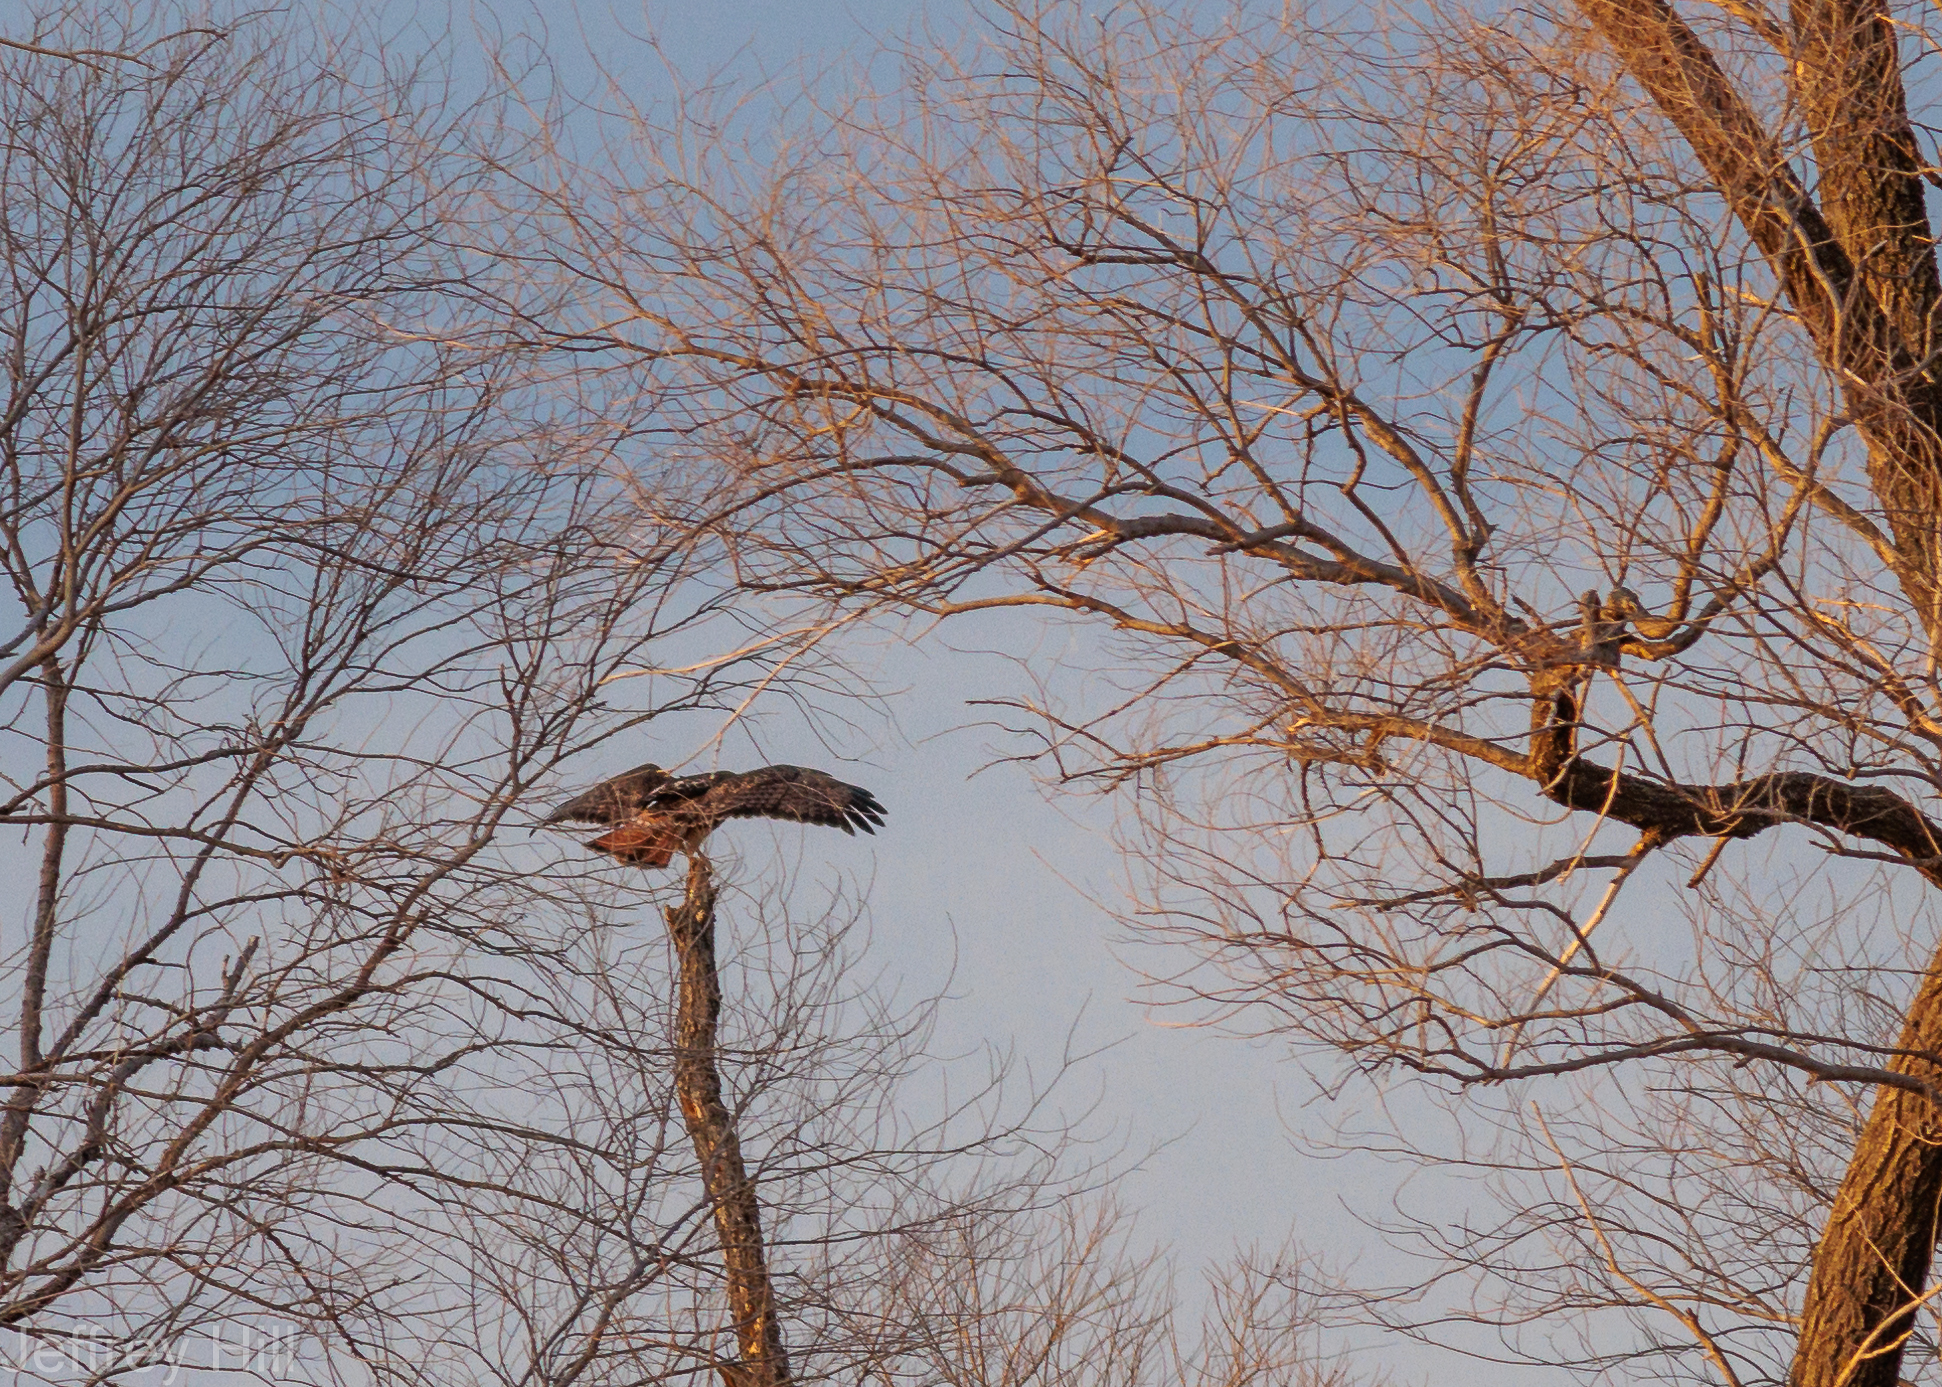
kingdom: Animalia
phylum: Chordata
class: Aves
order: Accipitriformes
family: Accipitridae
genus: Buteo
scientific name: Buteo jamaicensis
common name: Red-tailed hawk
